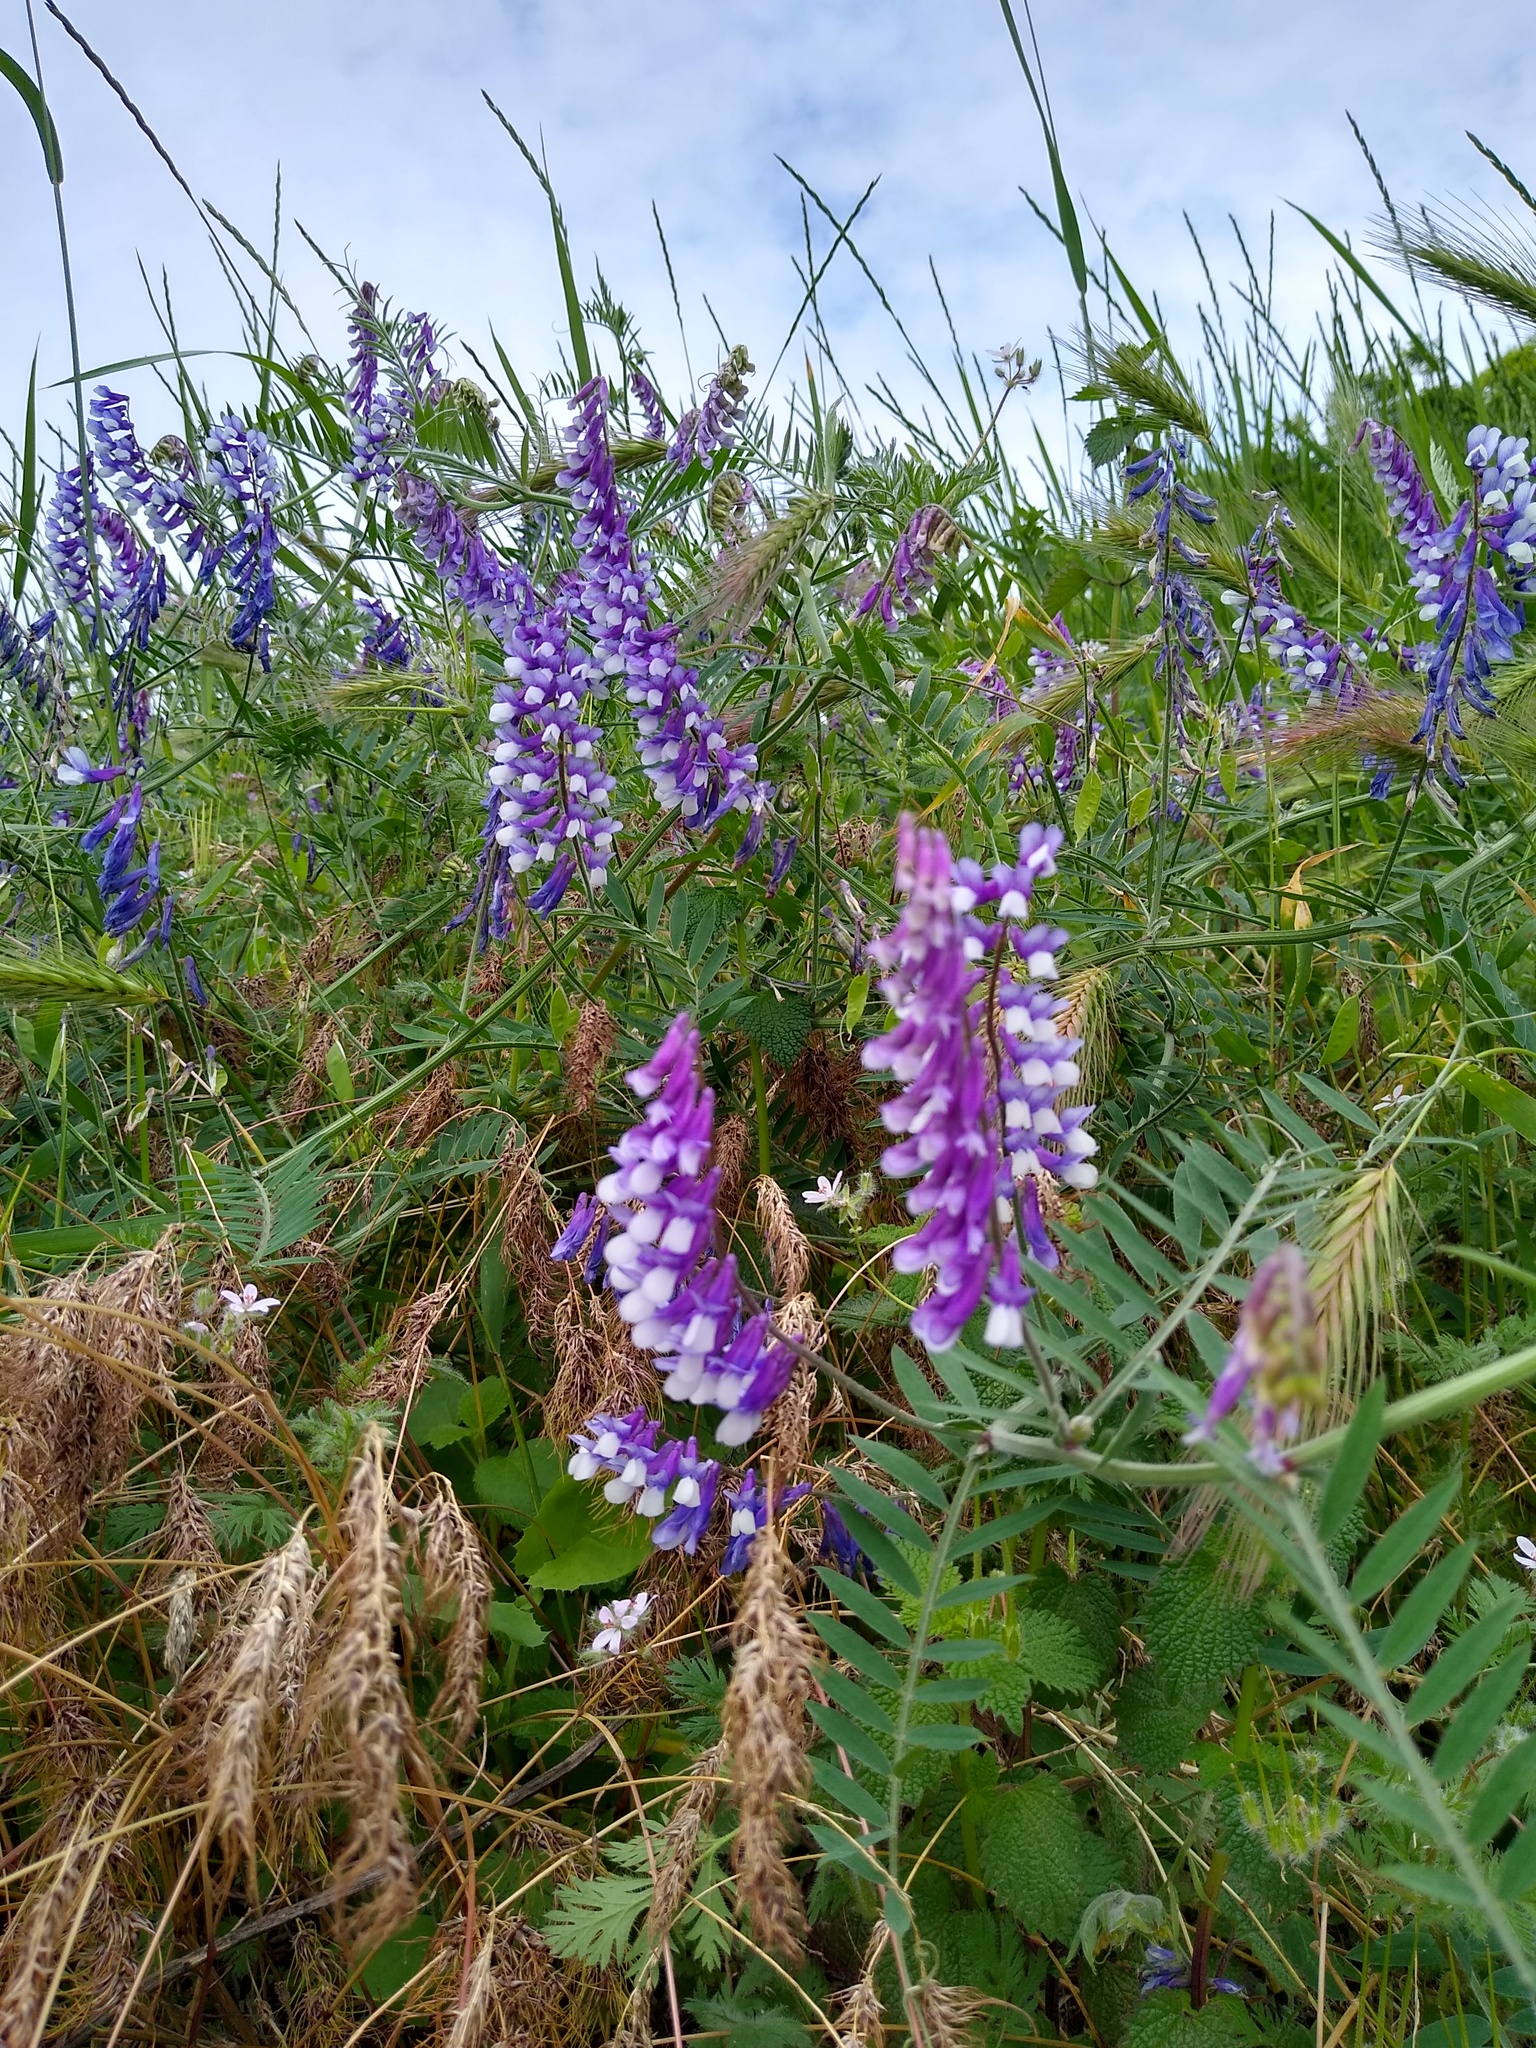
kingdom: Plantae
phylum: Tracheophyta
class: Magnoliopsida
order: Fabales
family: Fabaceae
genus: Vicia
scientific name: Vicia villosa
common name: Fodder vetch
